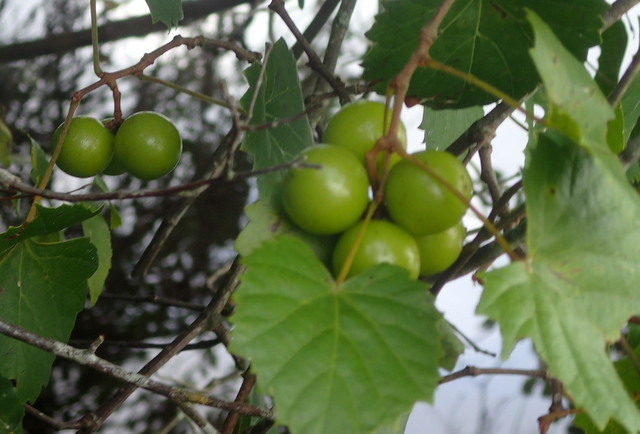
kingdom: Plantae
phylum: Tracheophyta
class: Magnoliopsida
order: Vitales
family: Vitaceae
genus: Vitis
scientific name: Vitis rotundifolia
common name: Muscadine grape
